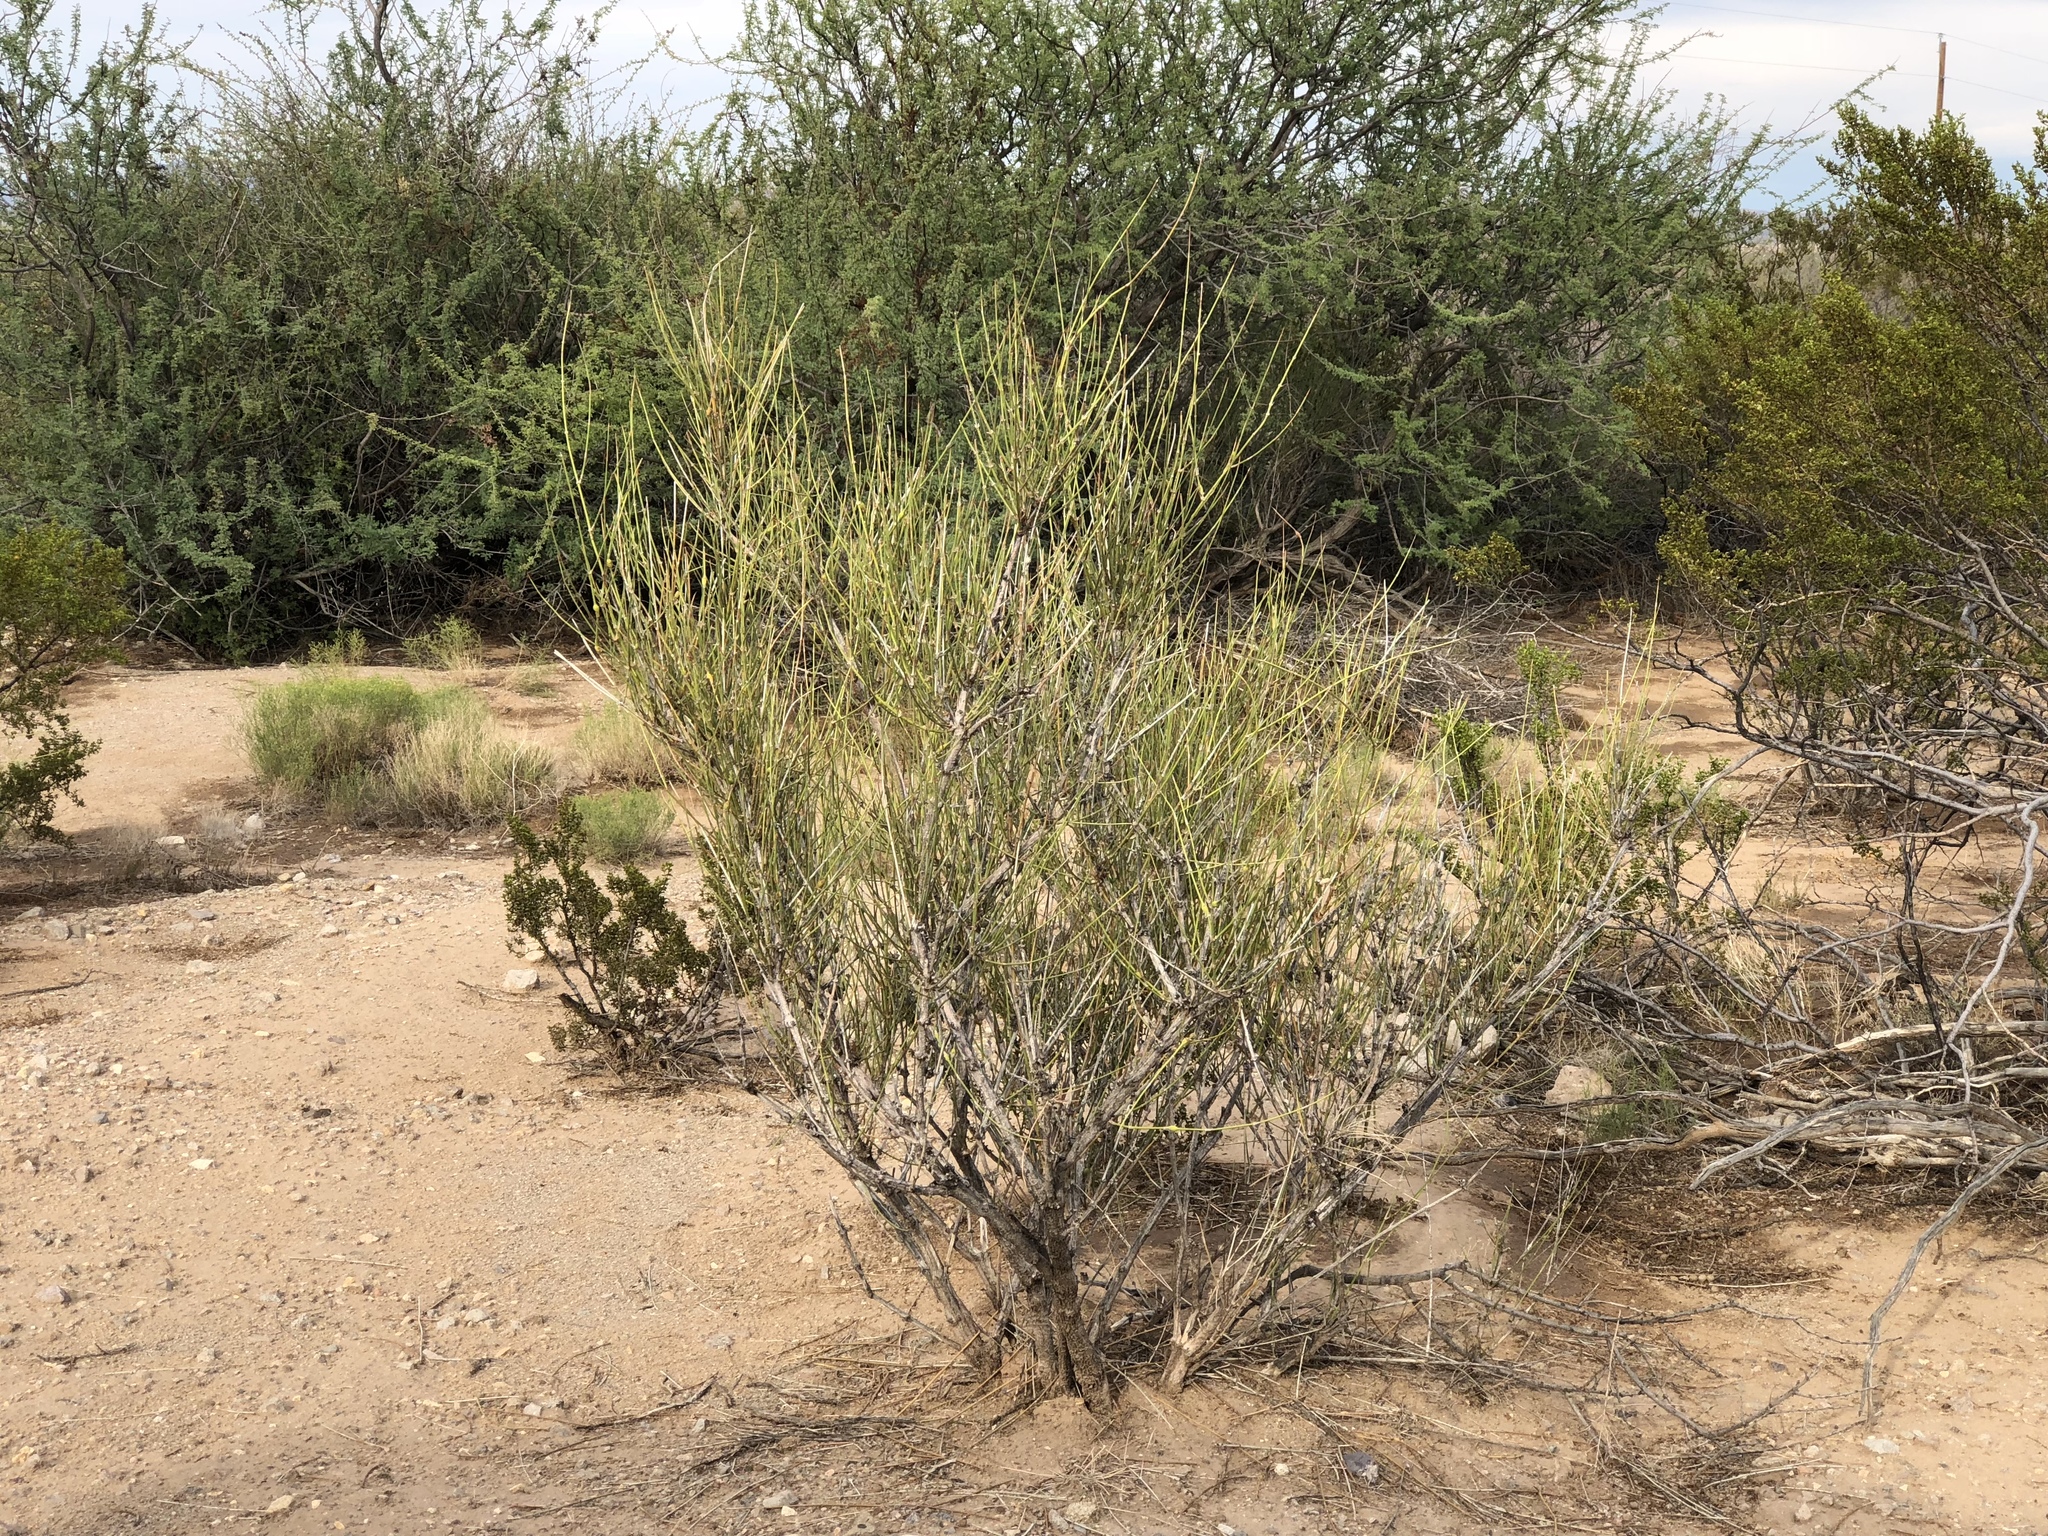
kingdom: Plantae
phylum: Tracheophyta
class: Gnetopsida
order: Ephedrales
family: Ephedraceae
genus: Ephedra
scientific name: Ephedra trifurca
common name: Mexican-tea
